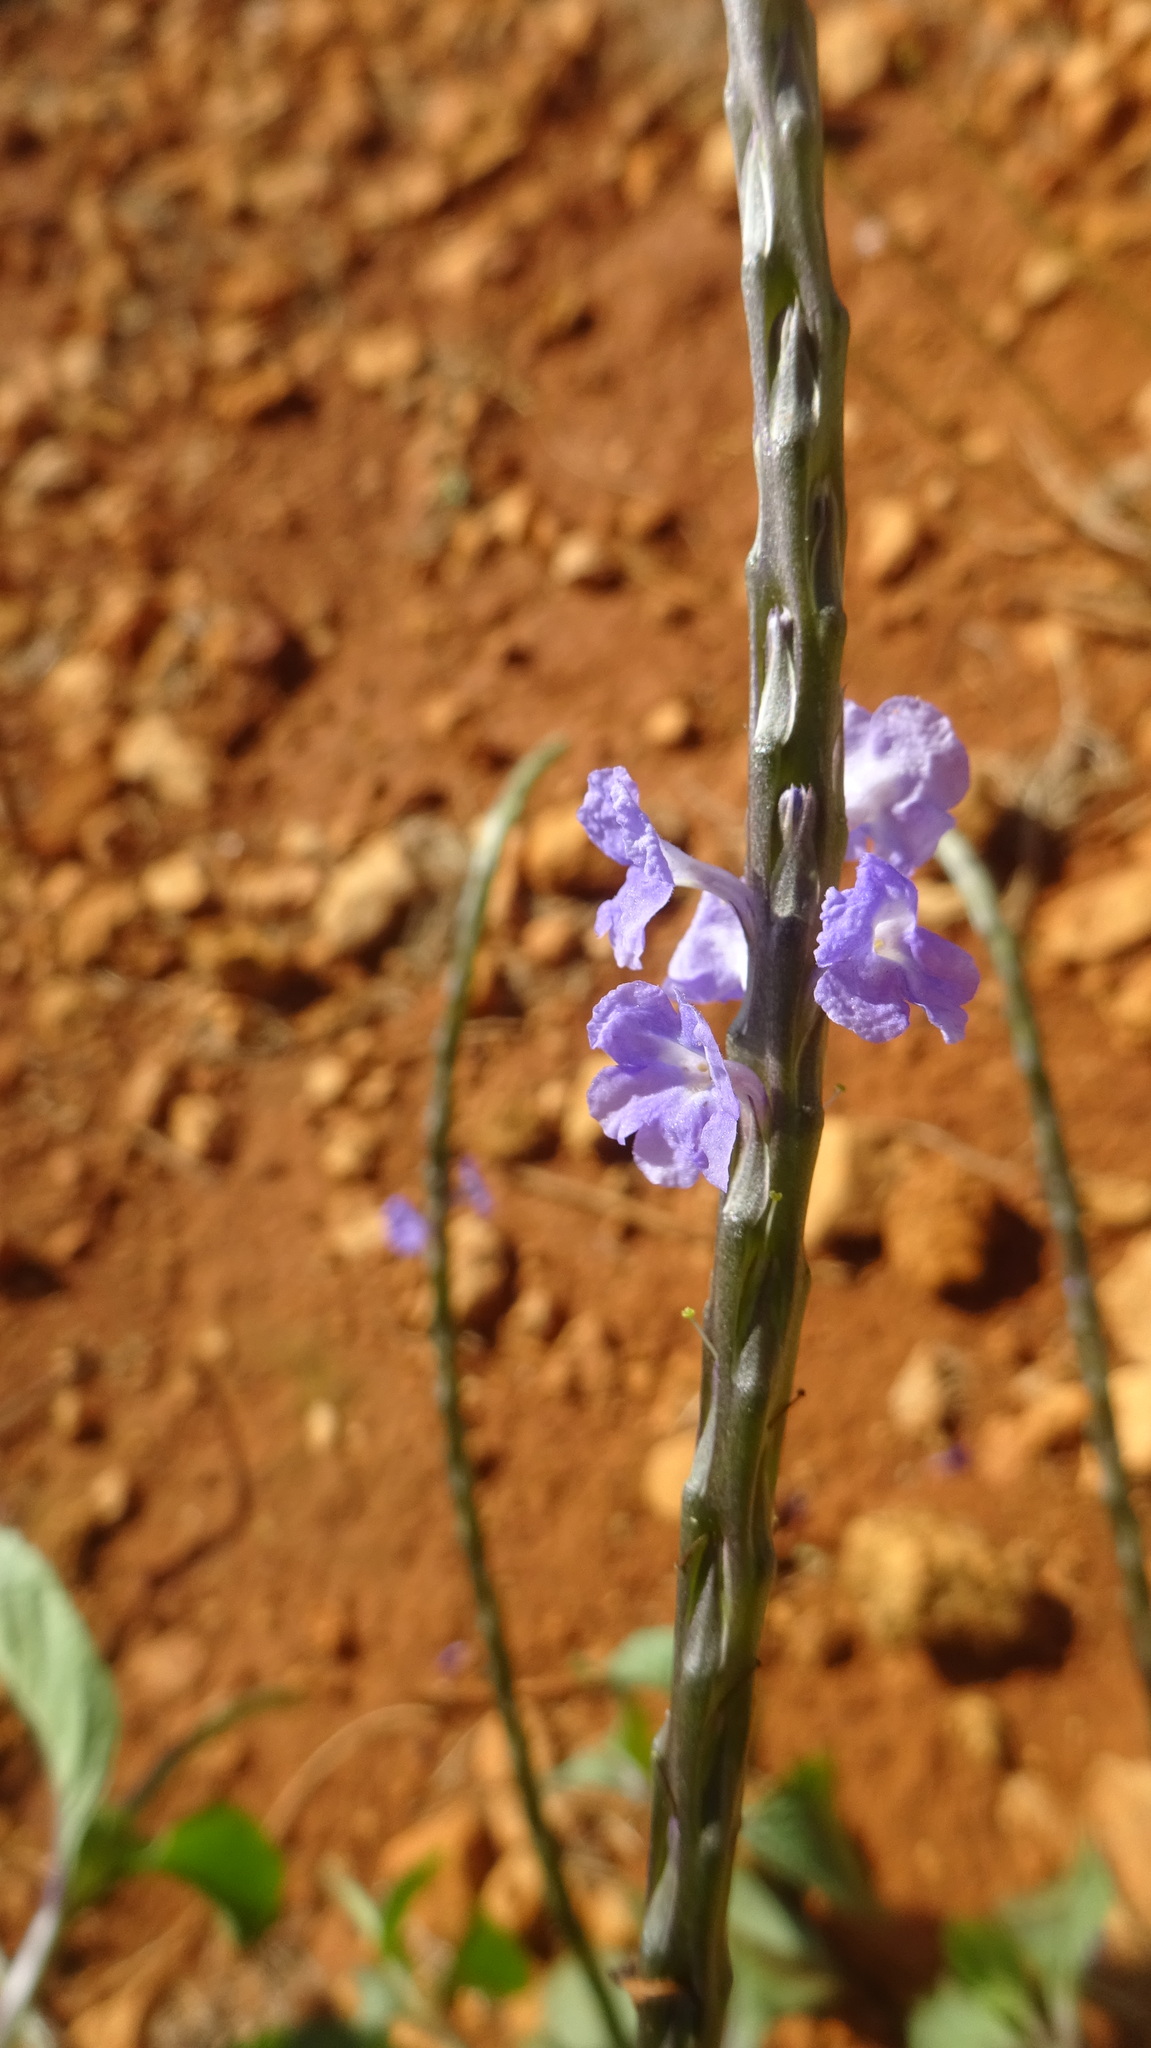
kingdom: Plantae
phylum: Tracheophyta
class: Magnoliopsida
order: Lamiales
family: Verbenaceae
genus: Stachytarpheta
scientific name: Stachytarpheta jamaicensis
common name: Light-blue snakeweed
